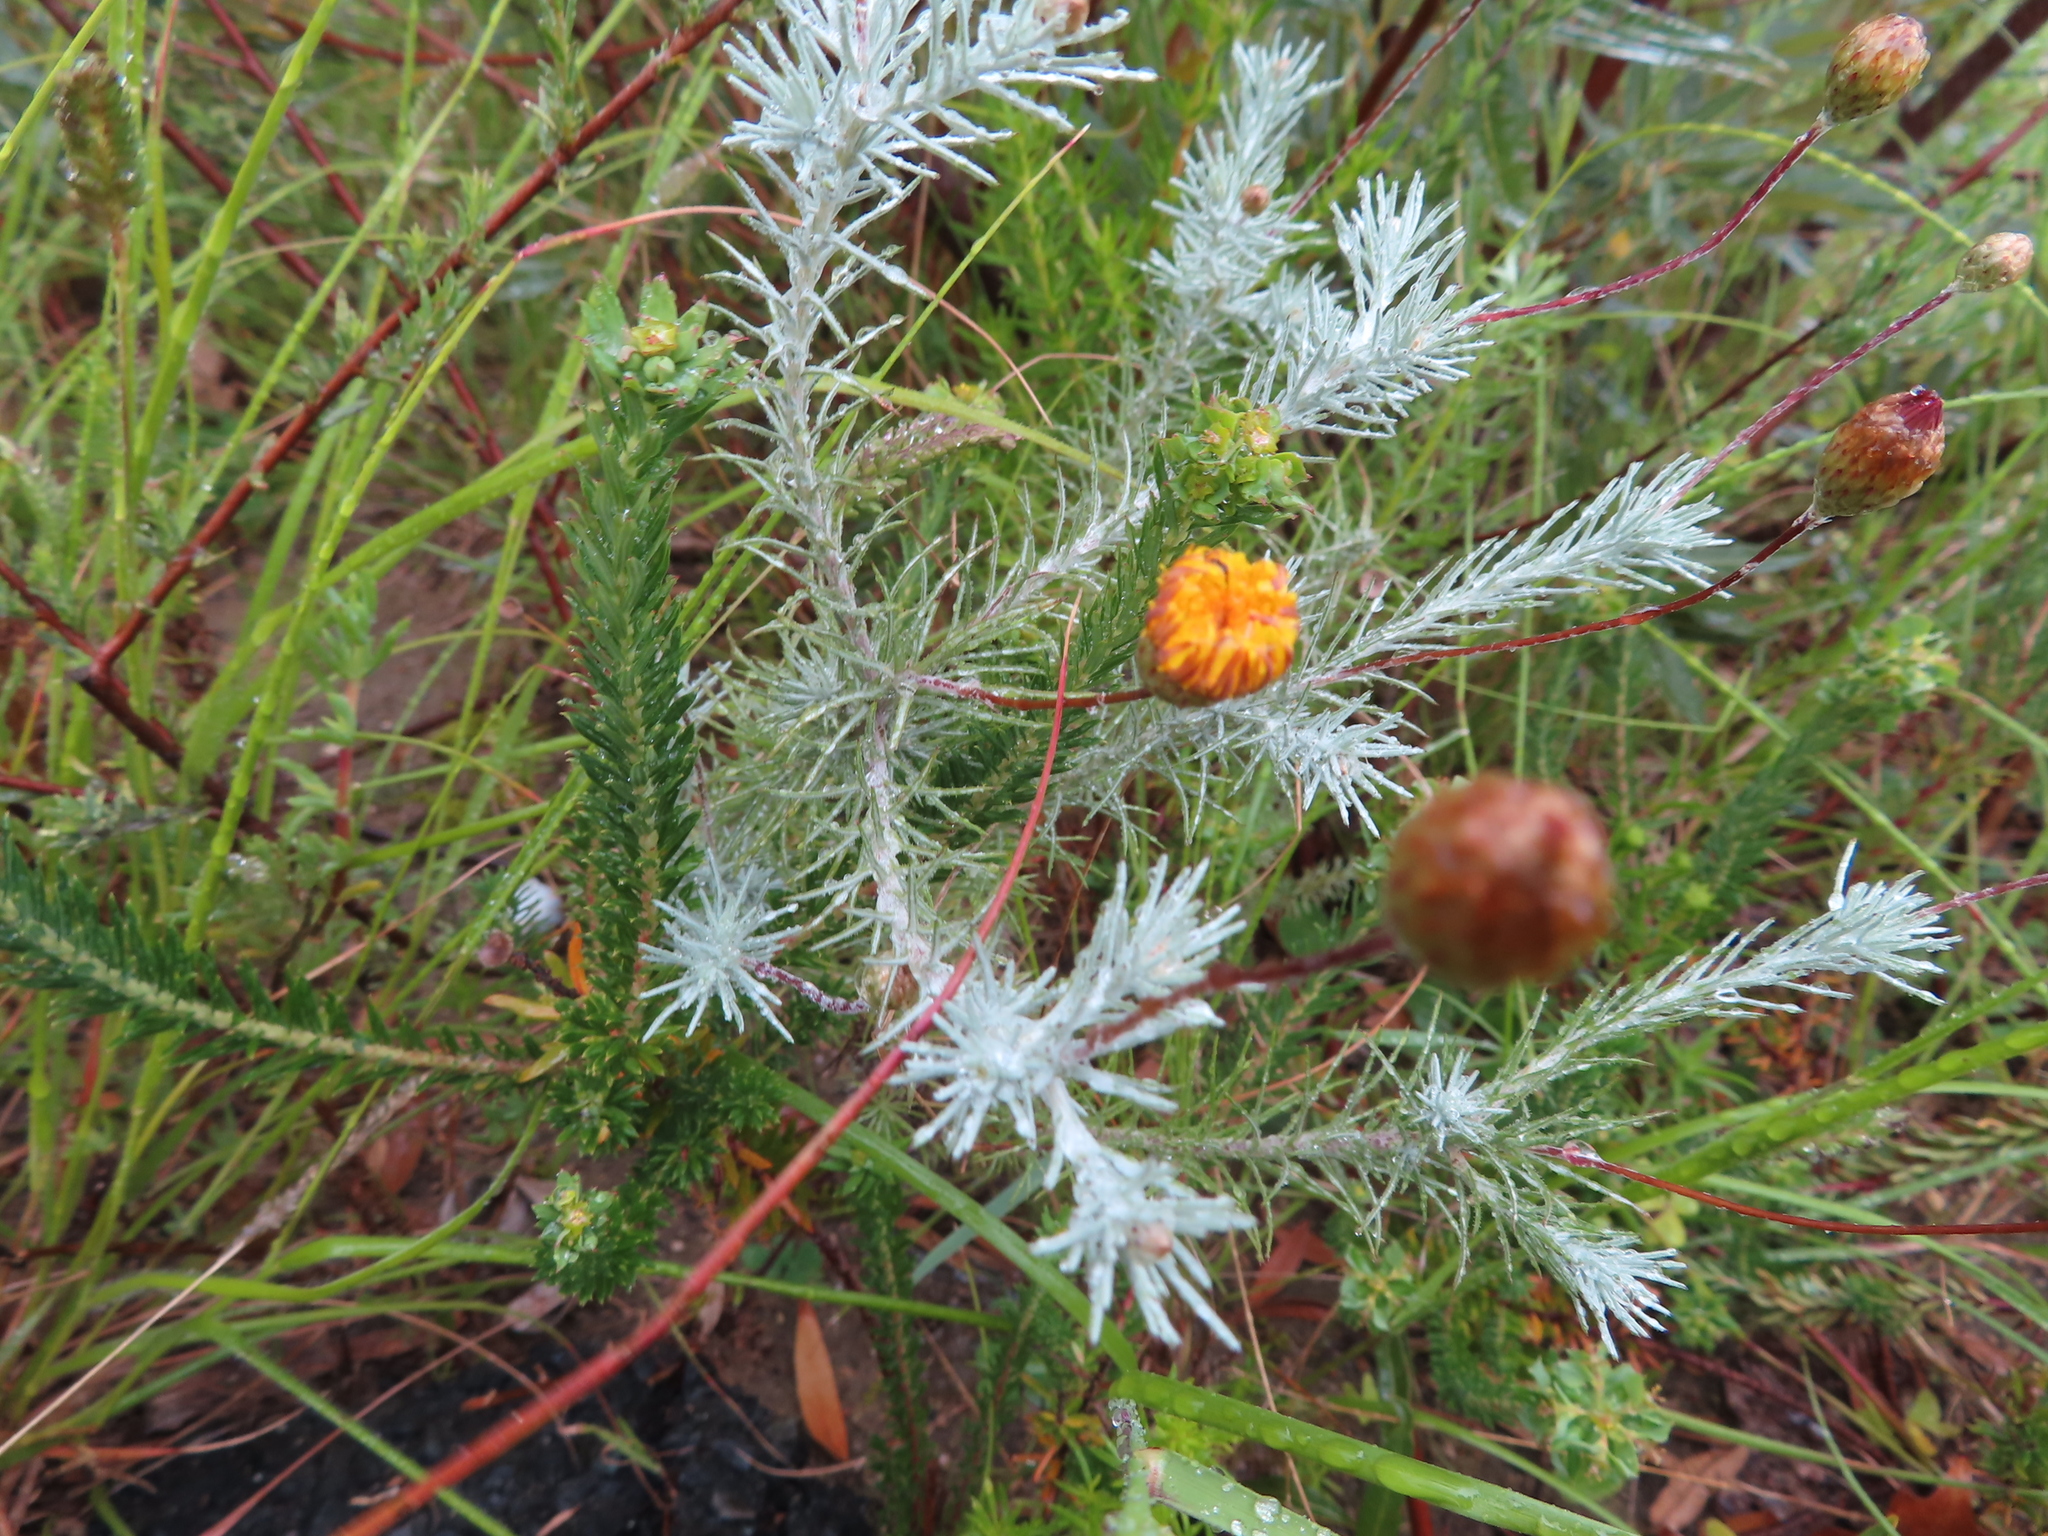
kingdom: Plantae
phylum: Tracheophyta
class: Magnoliopsida
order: Asterales
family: Asteraceae
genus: Leysera
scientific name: Leysera tenella
